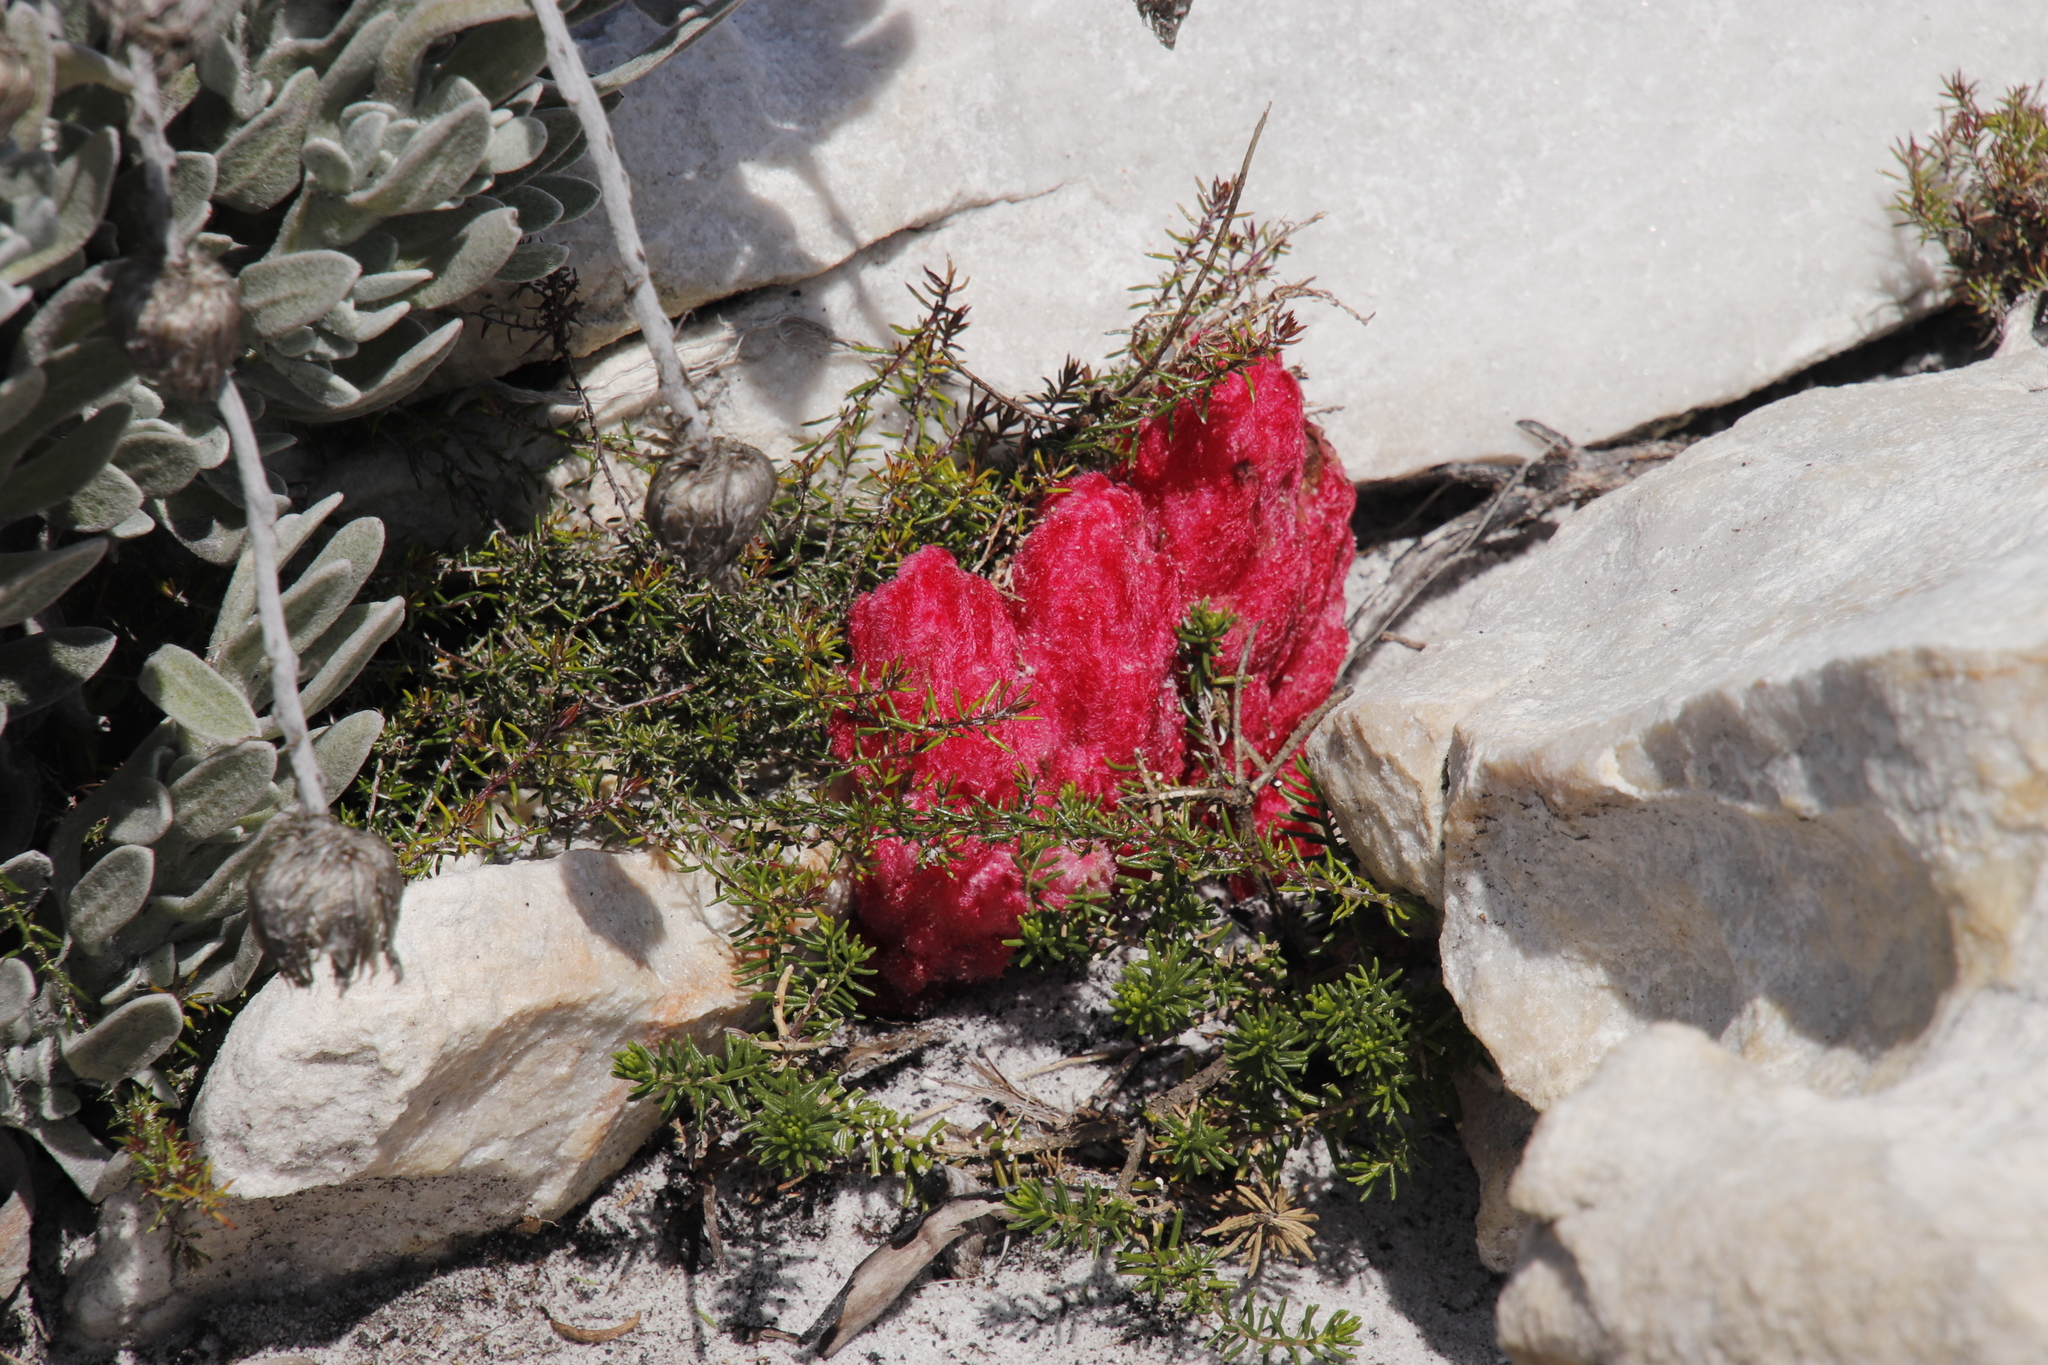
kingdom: Plantae
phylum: Tracheophyta
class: Magnoliopsida
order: Lamiales
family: Orobanchaceae
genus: Hyobanche
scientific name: Hyobanche sanguinea
